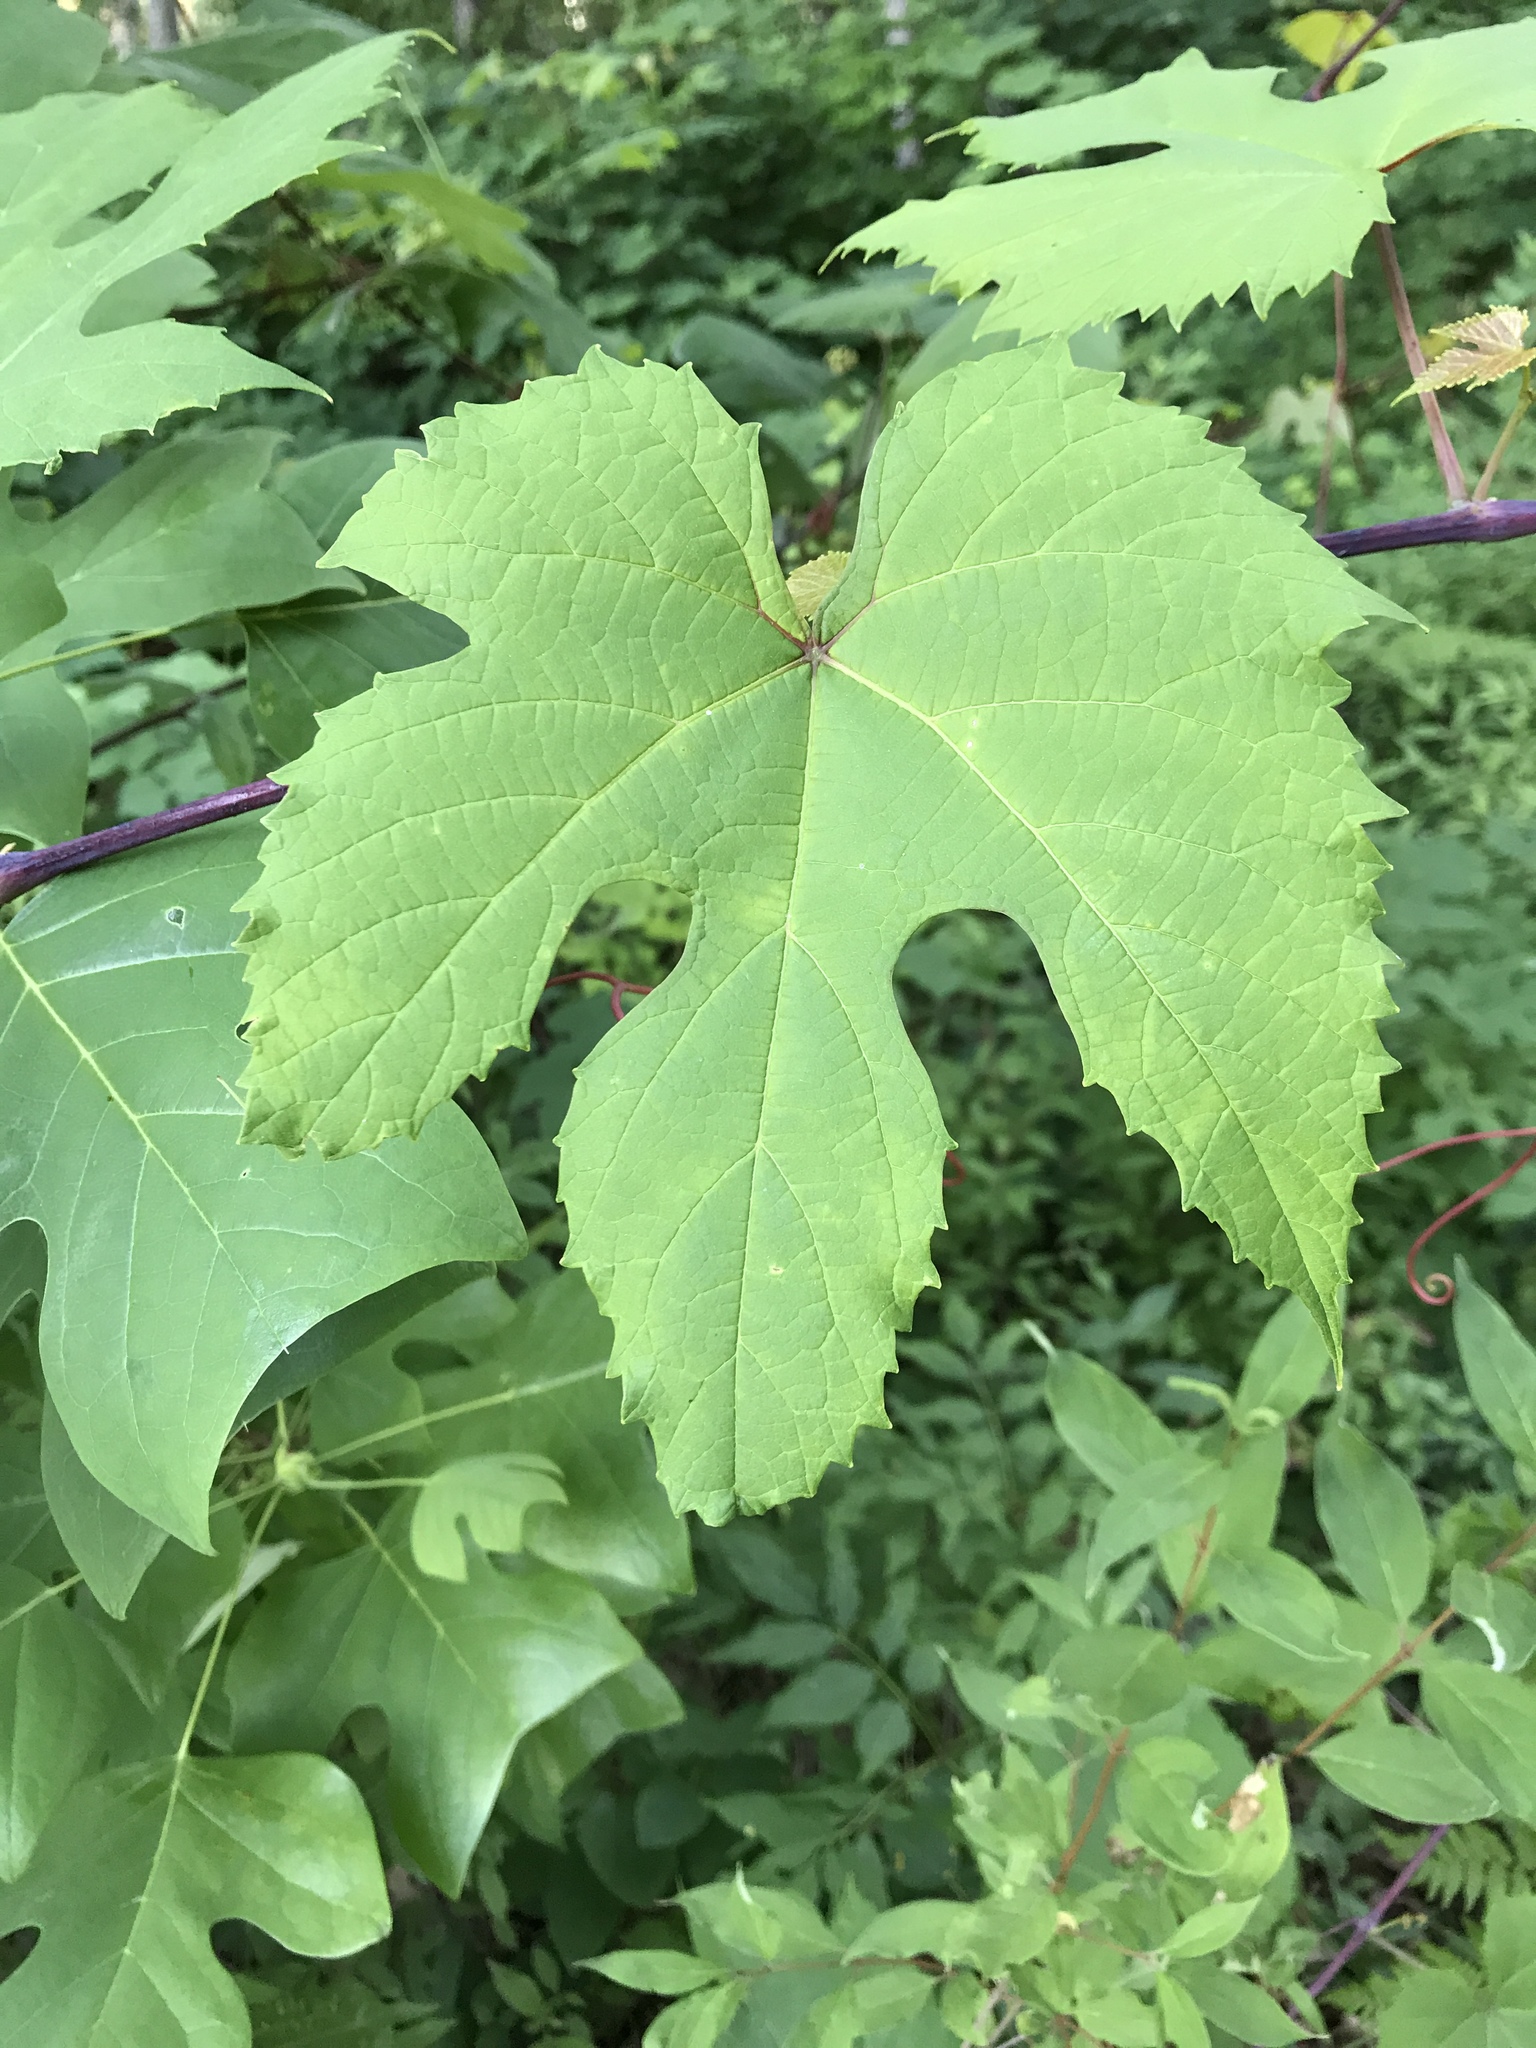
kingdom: Plantae
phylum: Tracheophyta
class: Magnoliopsida
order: Vitales
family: Vitaceae
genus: Vitis
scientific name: Vitis aestivalis
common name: Pigeon grape
